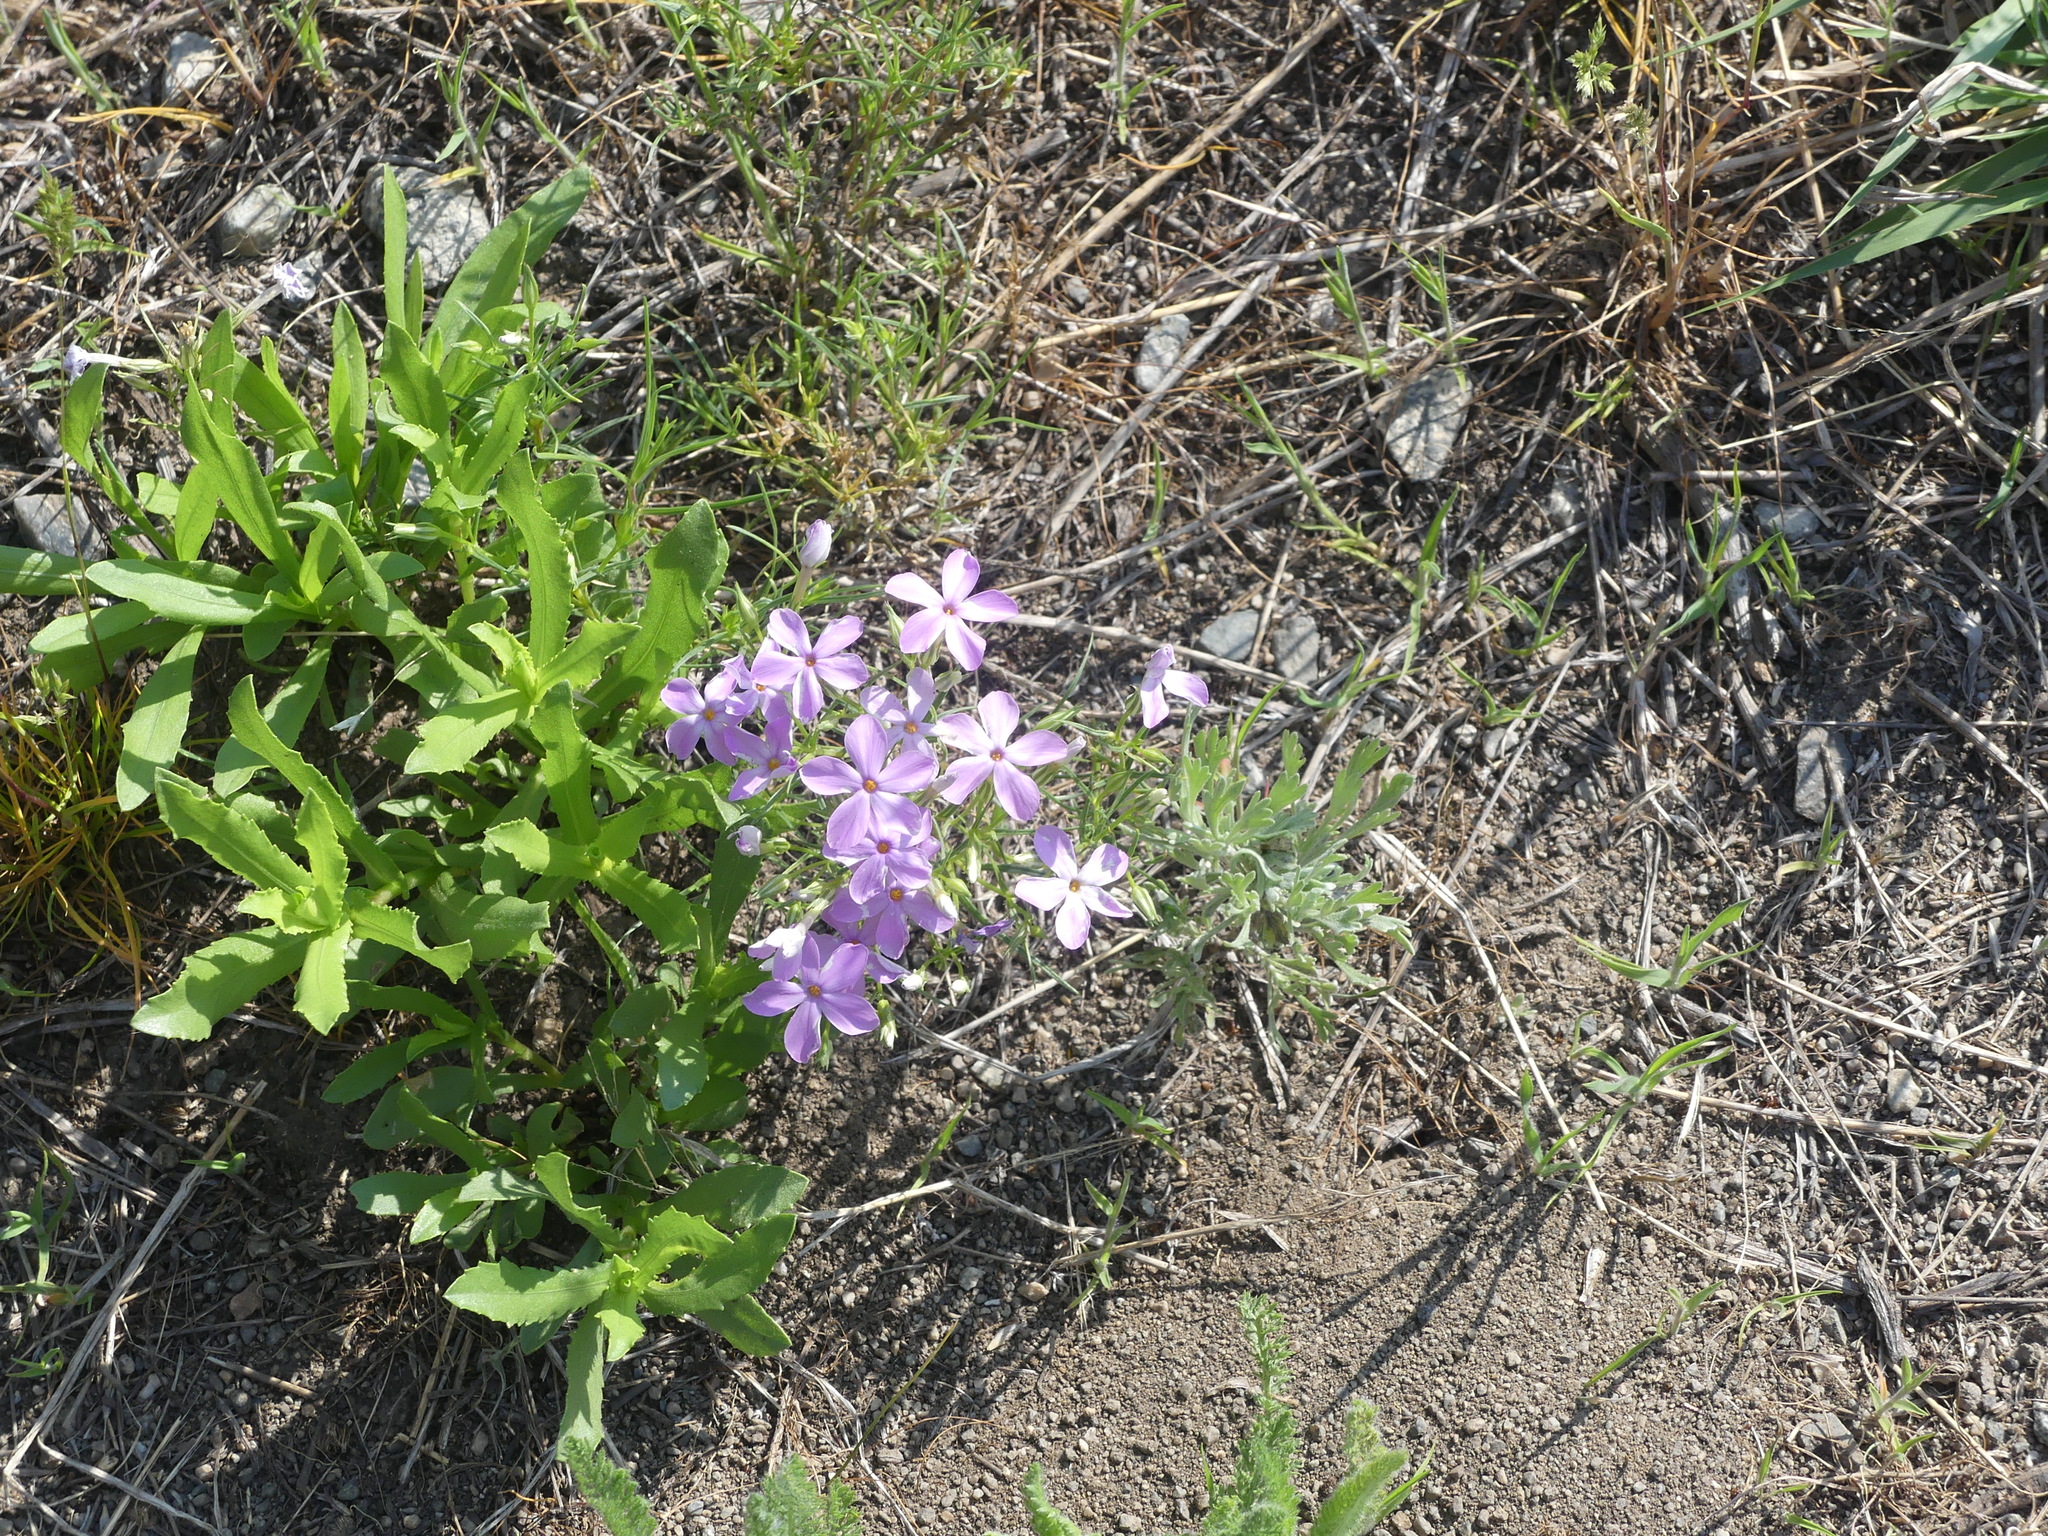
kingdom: Plantae
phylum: Tracheophyta
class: Magnoliopsida
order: Ericales
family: Polemoniaceae
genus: Phlox
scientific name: Phlox longifolia
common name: Longleaf phlox
